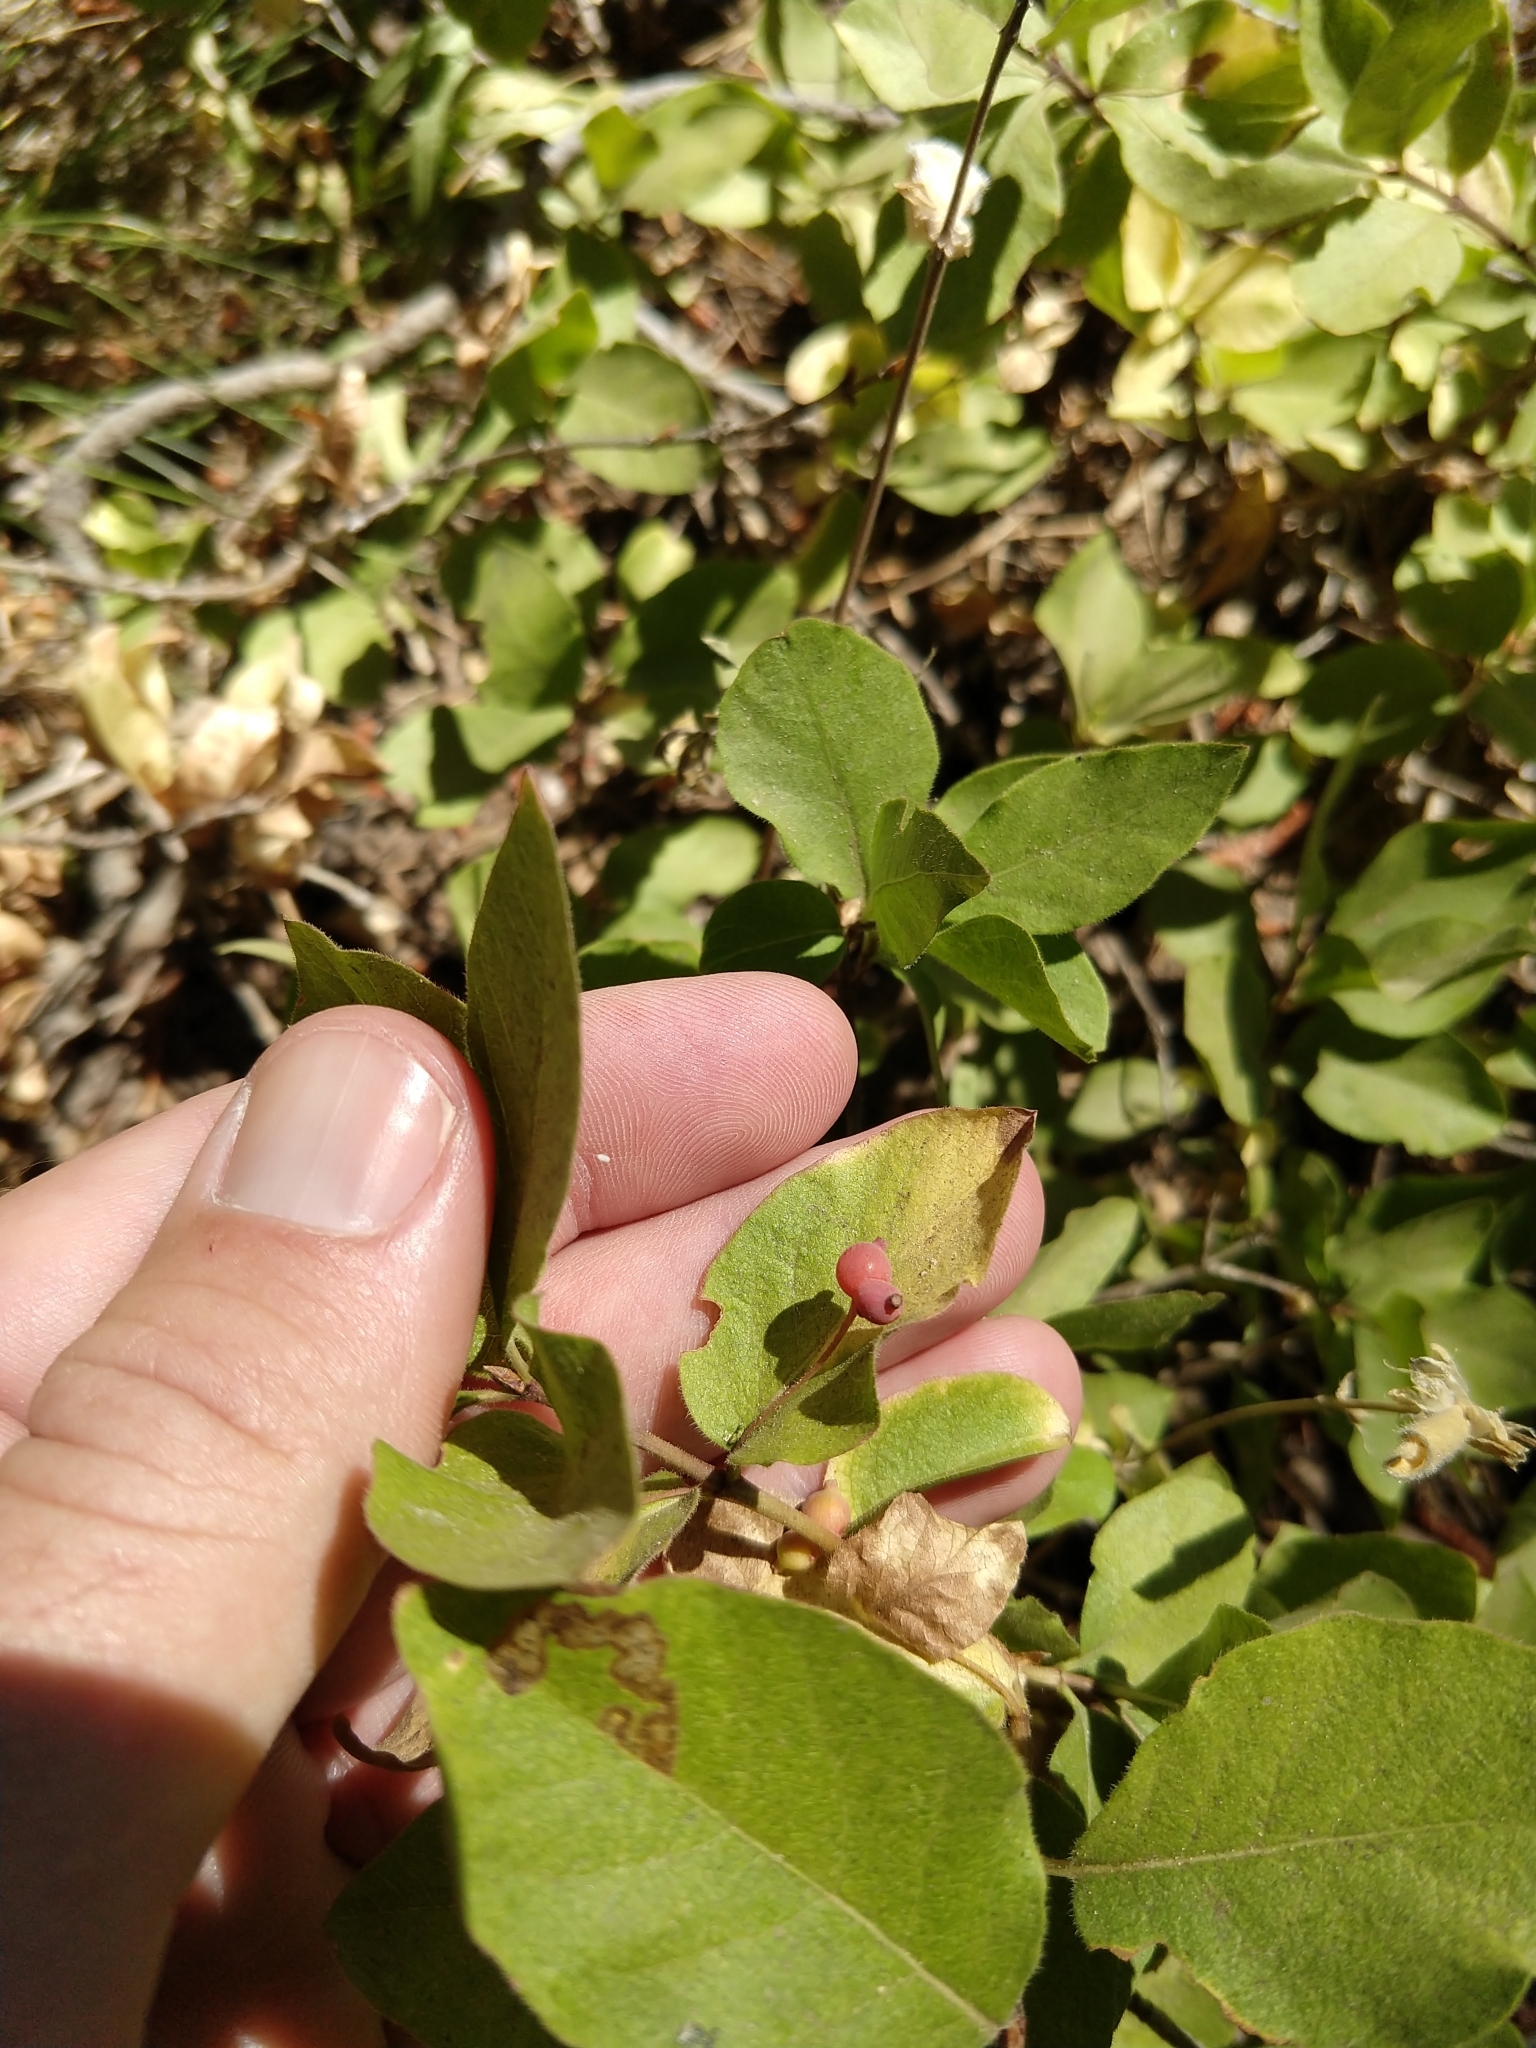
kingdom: Plantae
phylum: Tracheophyta
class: Magnoliopsida
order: Dipsacales
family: Caprifoliaceae
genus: Lonicera
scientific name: Lonicera conjugialis
